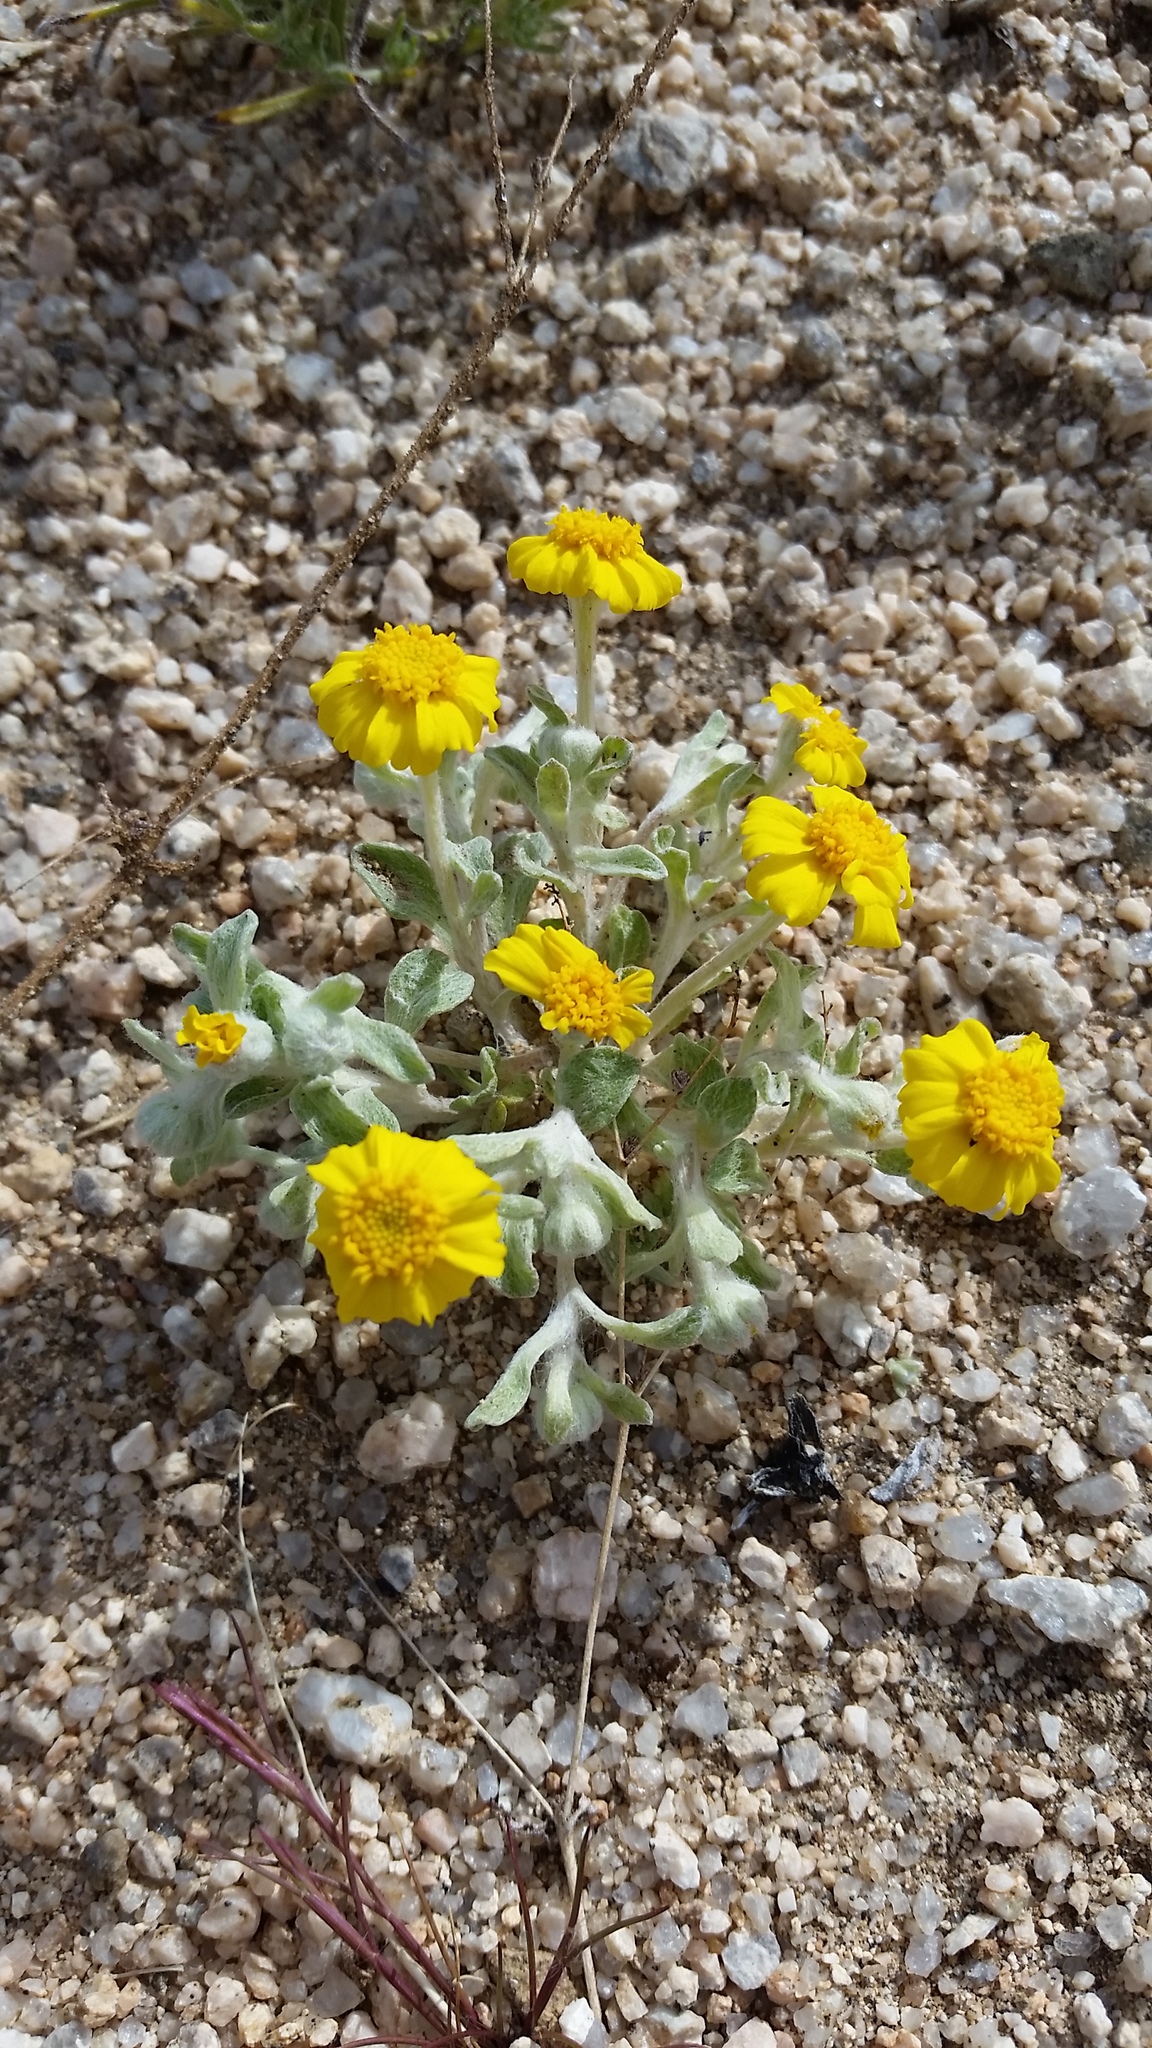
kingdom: Plantae
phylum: Tracheophyta
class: Magnoliopsida
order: Asterales
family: Asteraceae
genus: Eriophyllum
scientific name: Eriophyllum wallacei
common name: Wallace's woolly daisy
